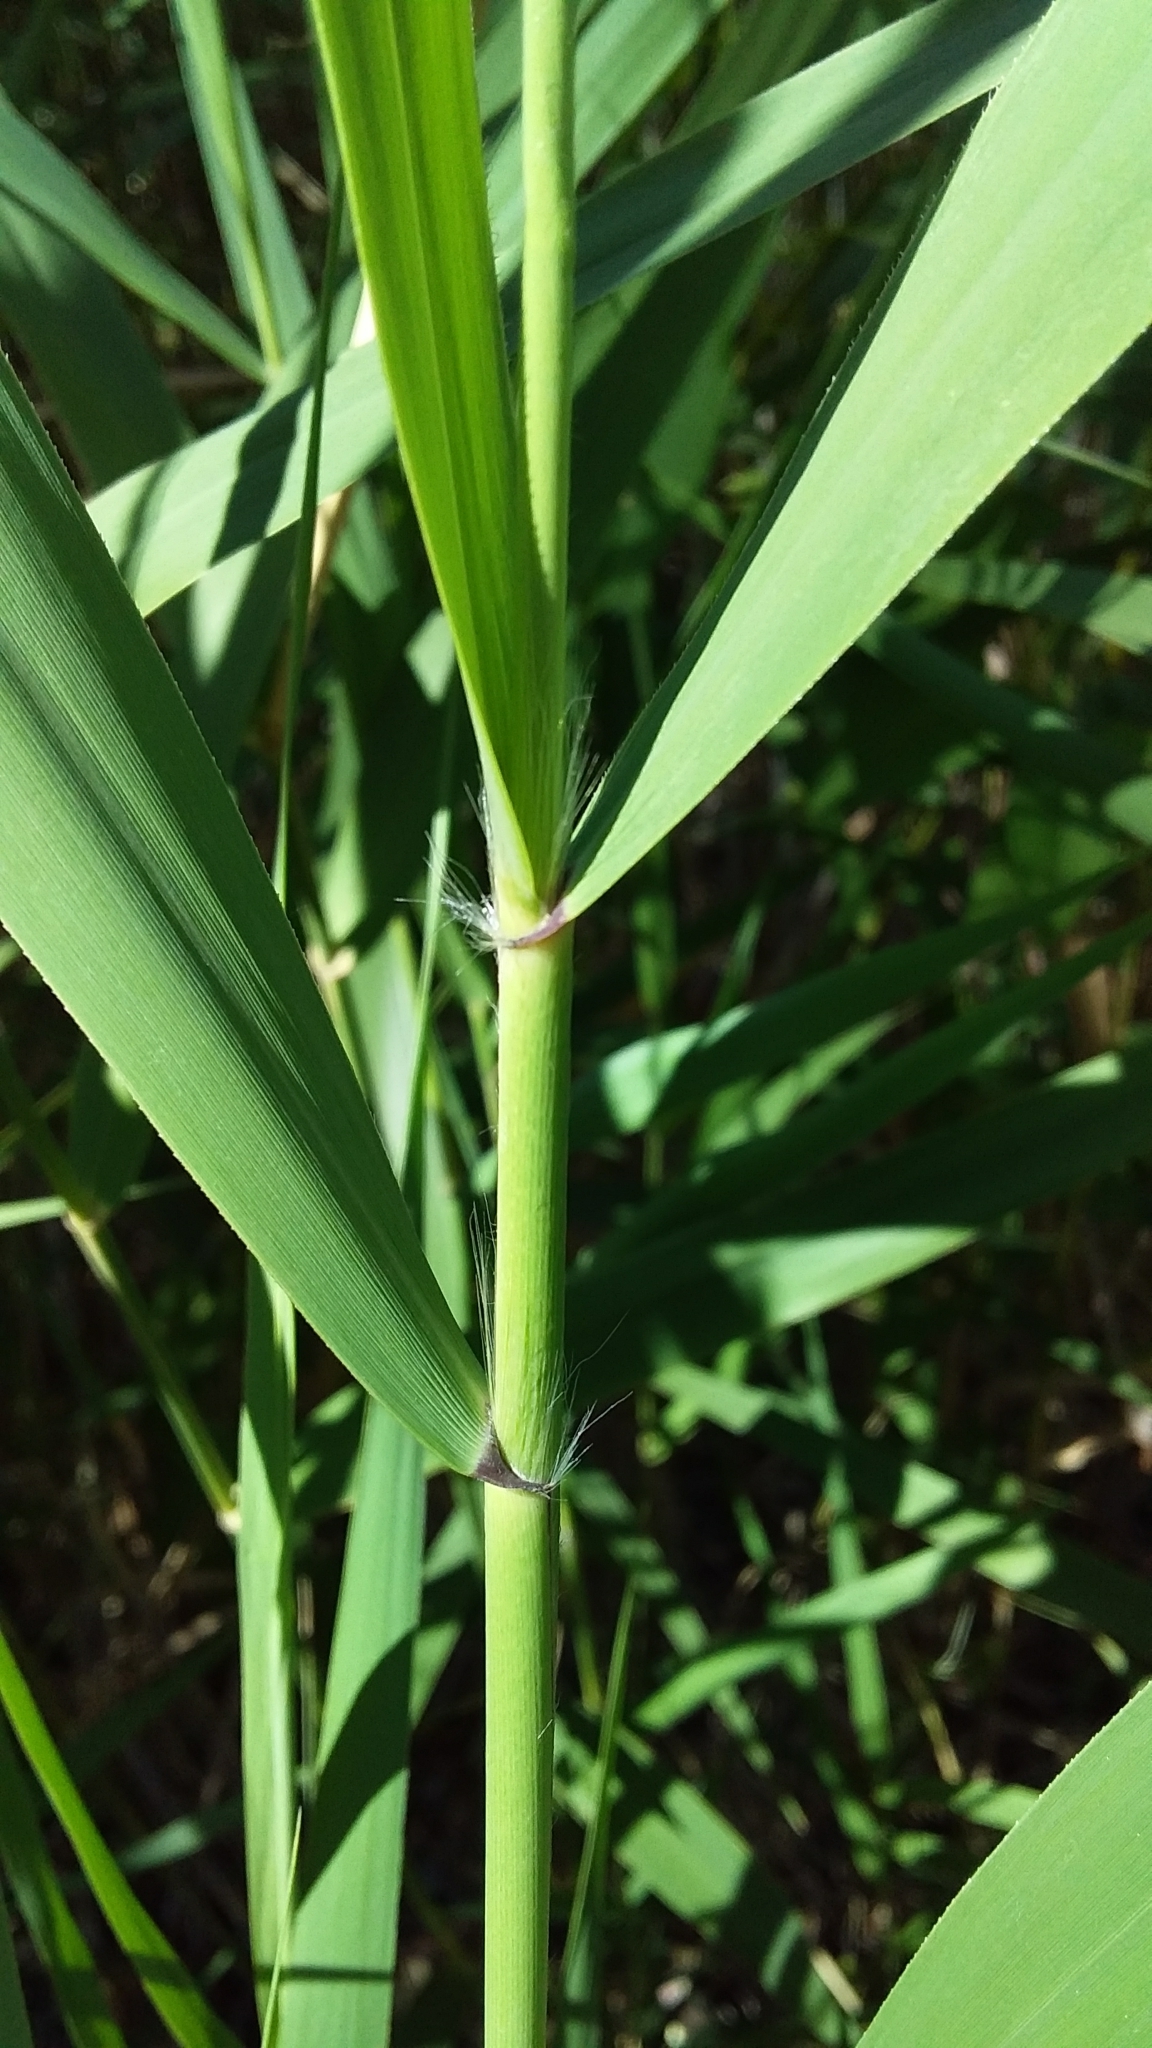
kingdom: Plantae
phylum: Tracheophyta
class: Liliopsida
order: Poales
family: Poaceae
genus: Phragmites
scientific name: Phragmites australis
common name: Common reed
